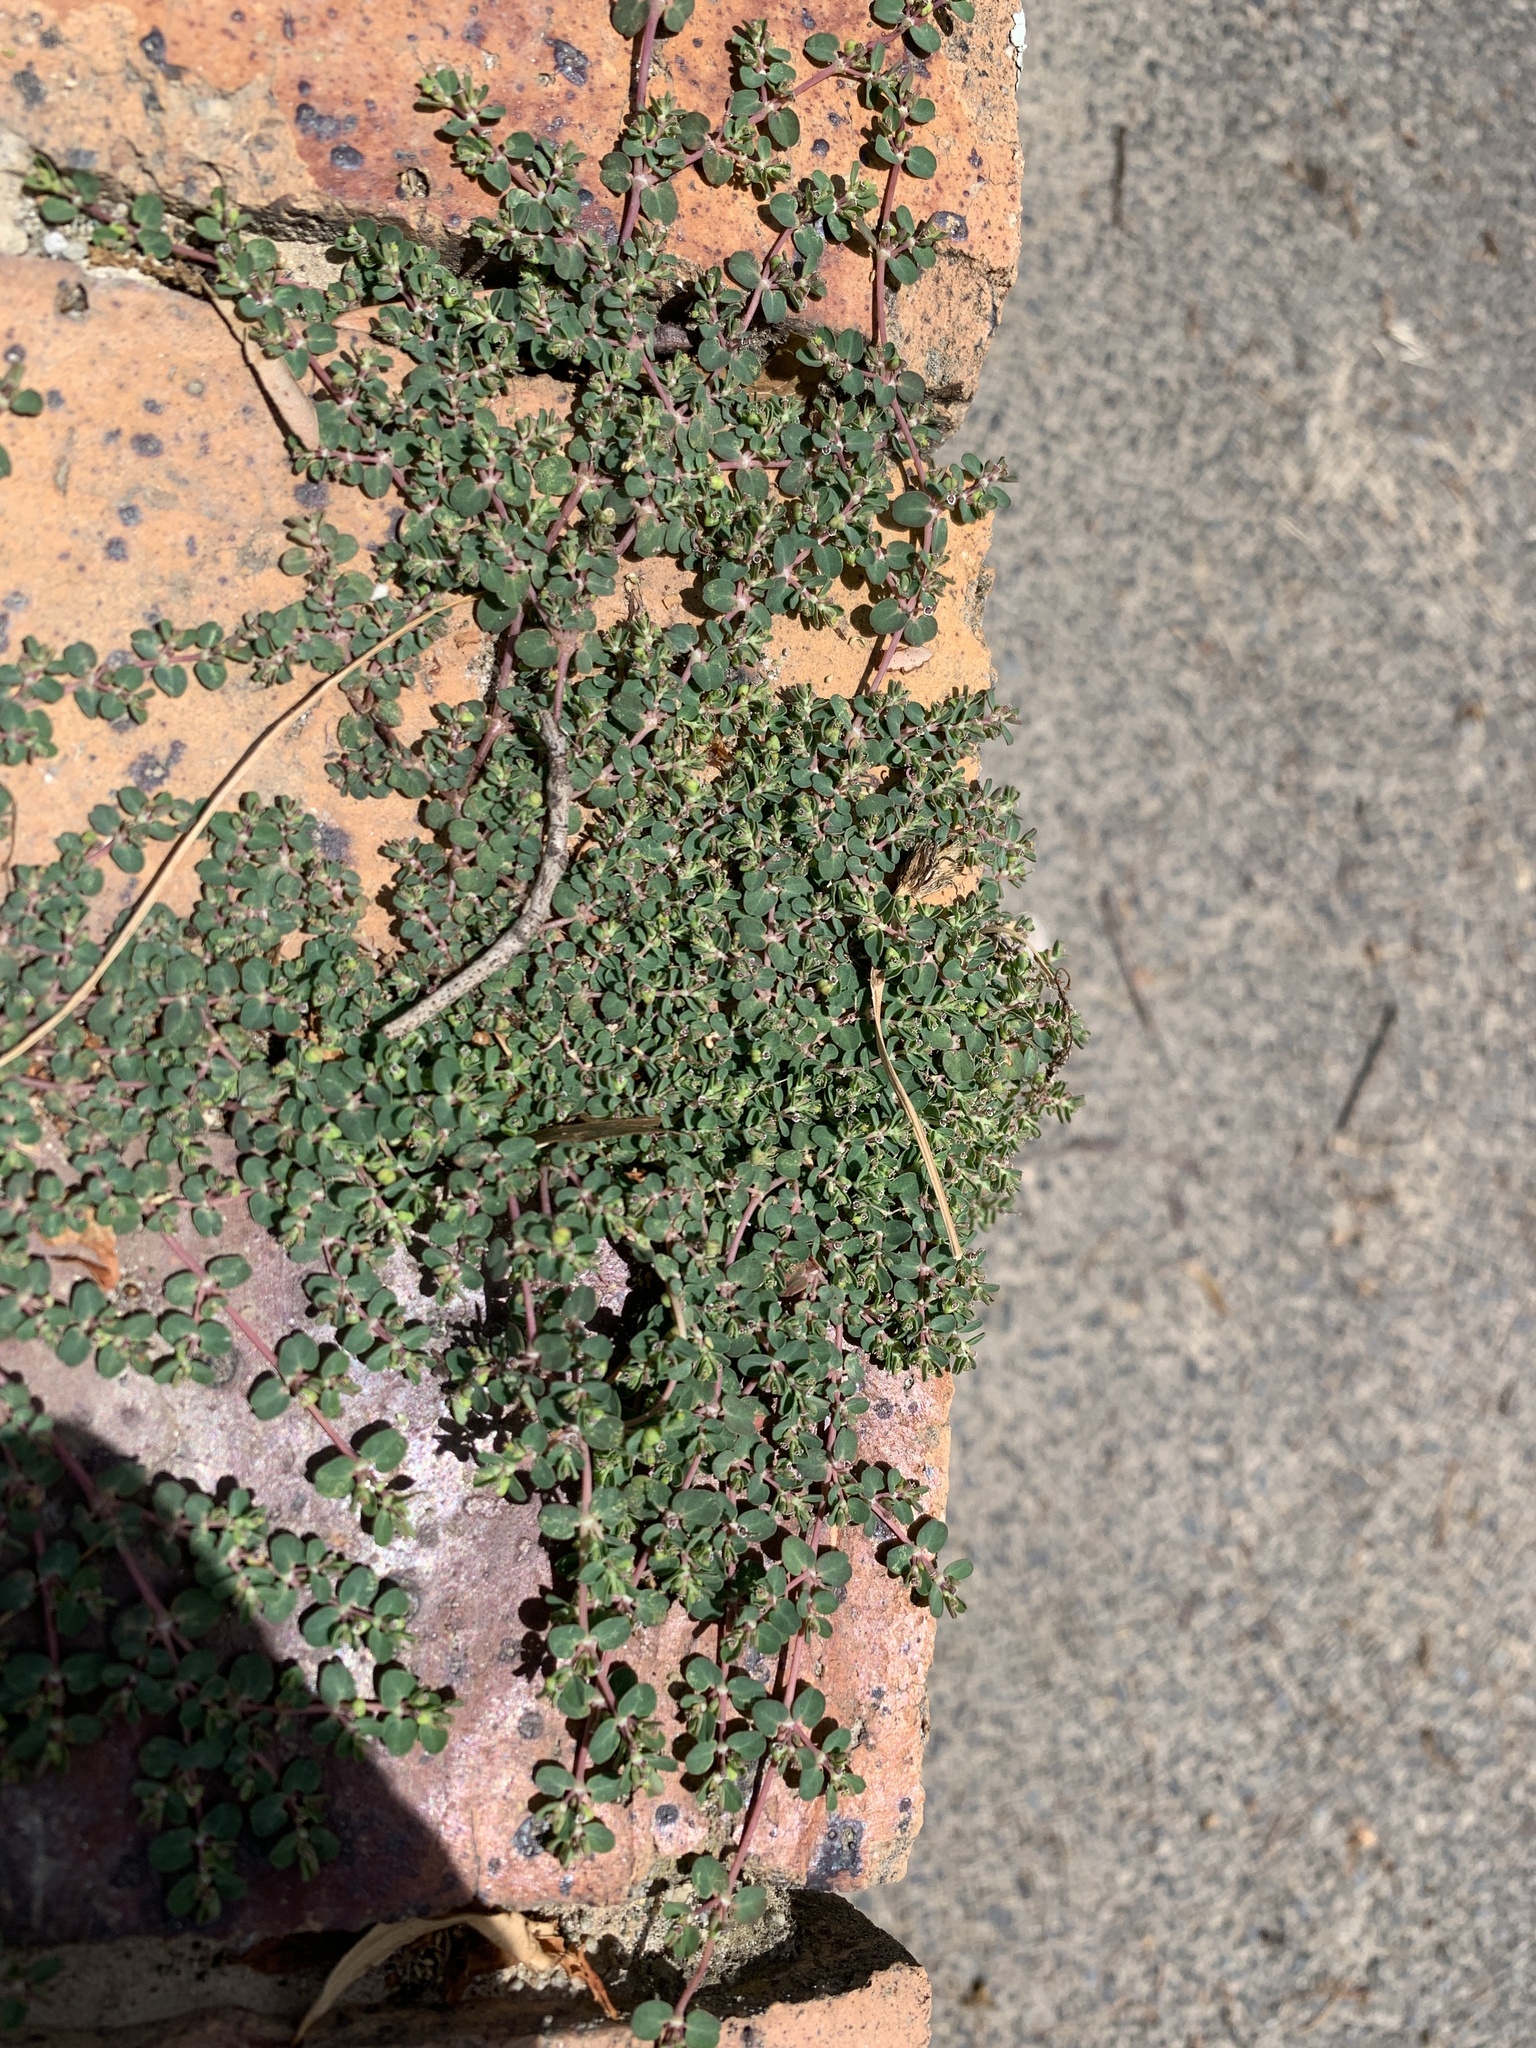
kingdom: Plantae
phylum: Tracheophyta
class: Magnoliopsida
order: Malpighiales
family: Euphorbiaceae
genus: Euphorbia
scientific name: Euphorbia serpens
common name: Matted sandmat
